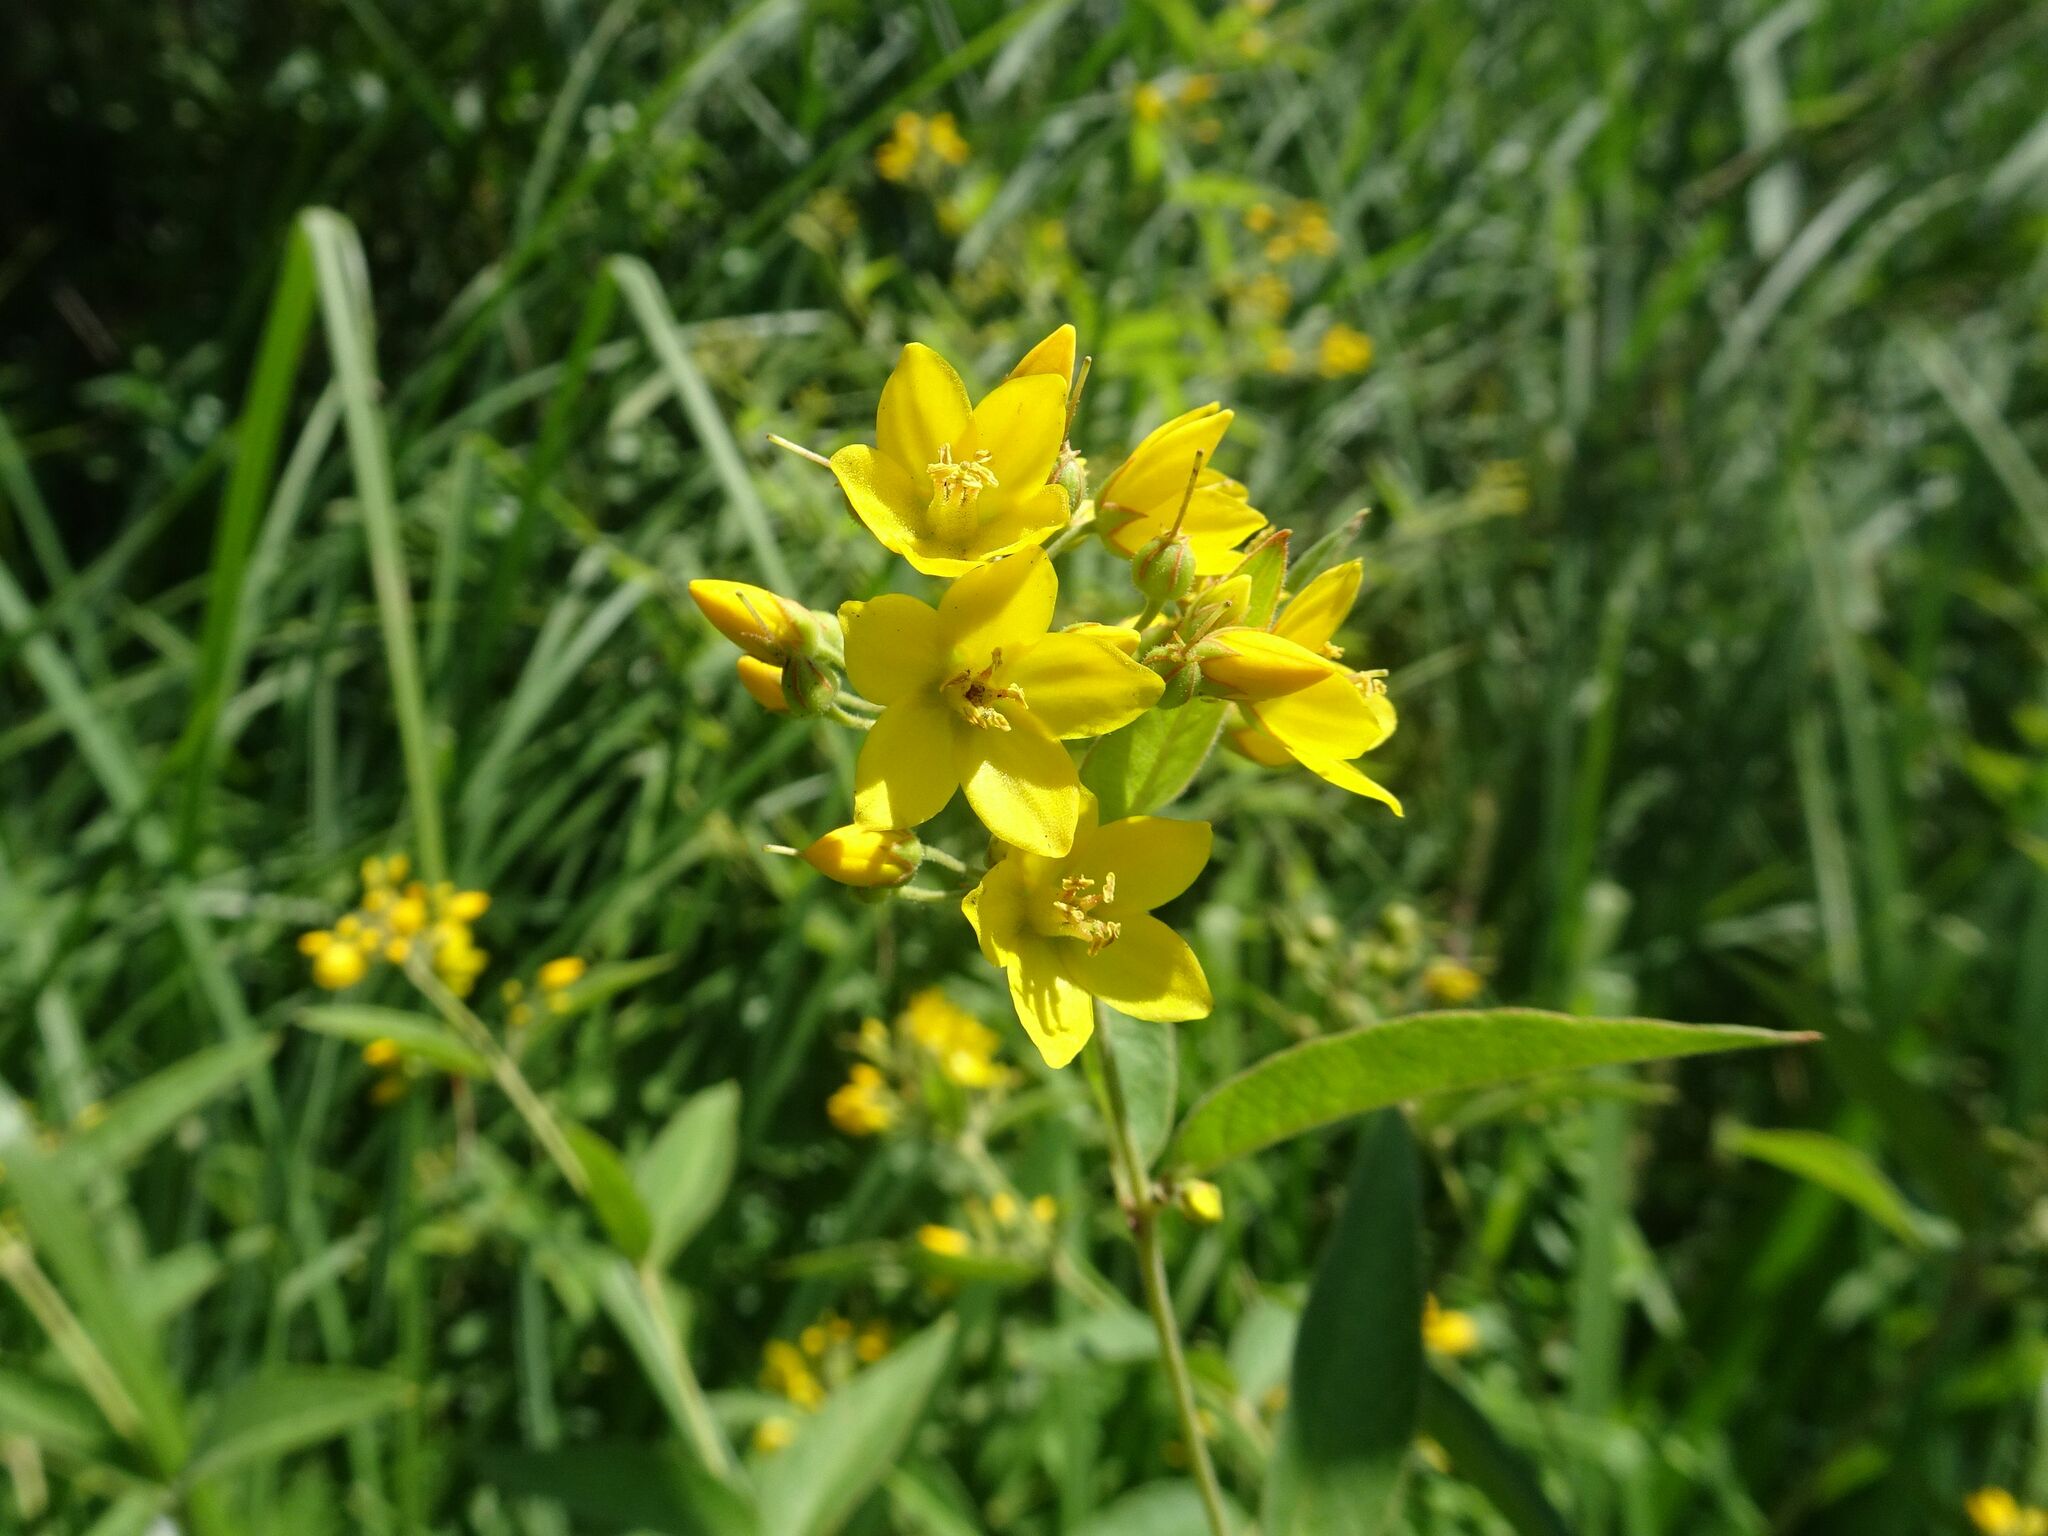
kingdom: Plantae
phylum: Tracheophyta
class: Magnoliopsida
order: Ericales
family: Primulaceae
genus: Lysimachia
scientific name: Lysimachia vulgaris
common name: Yellow loosestrife
